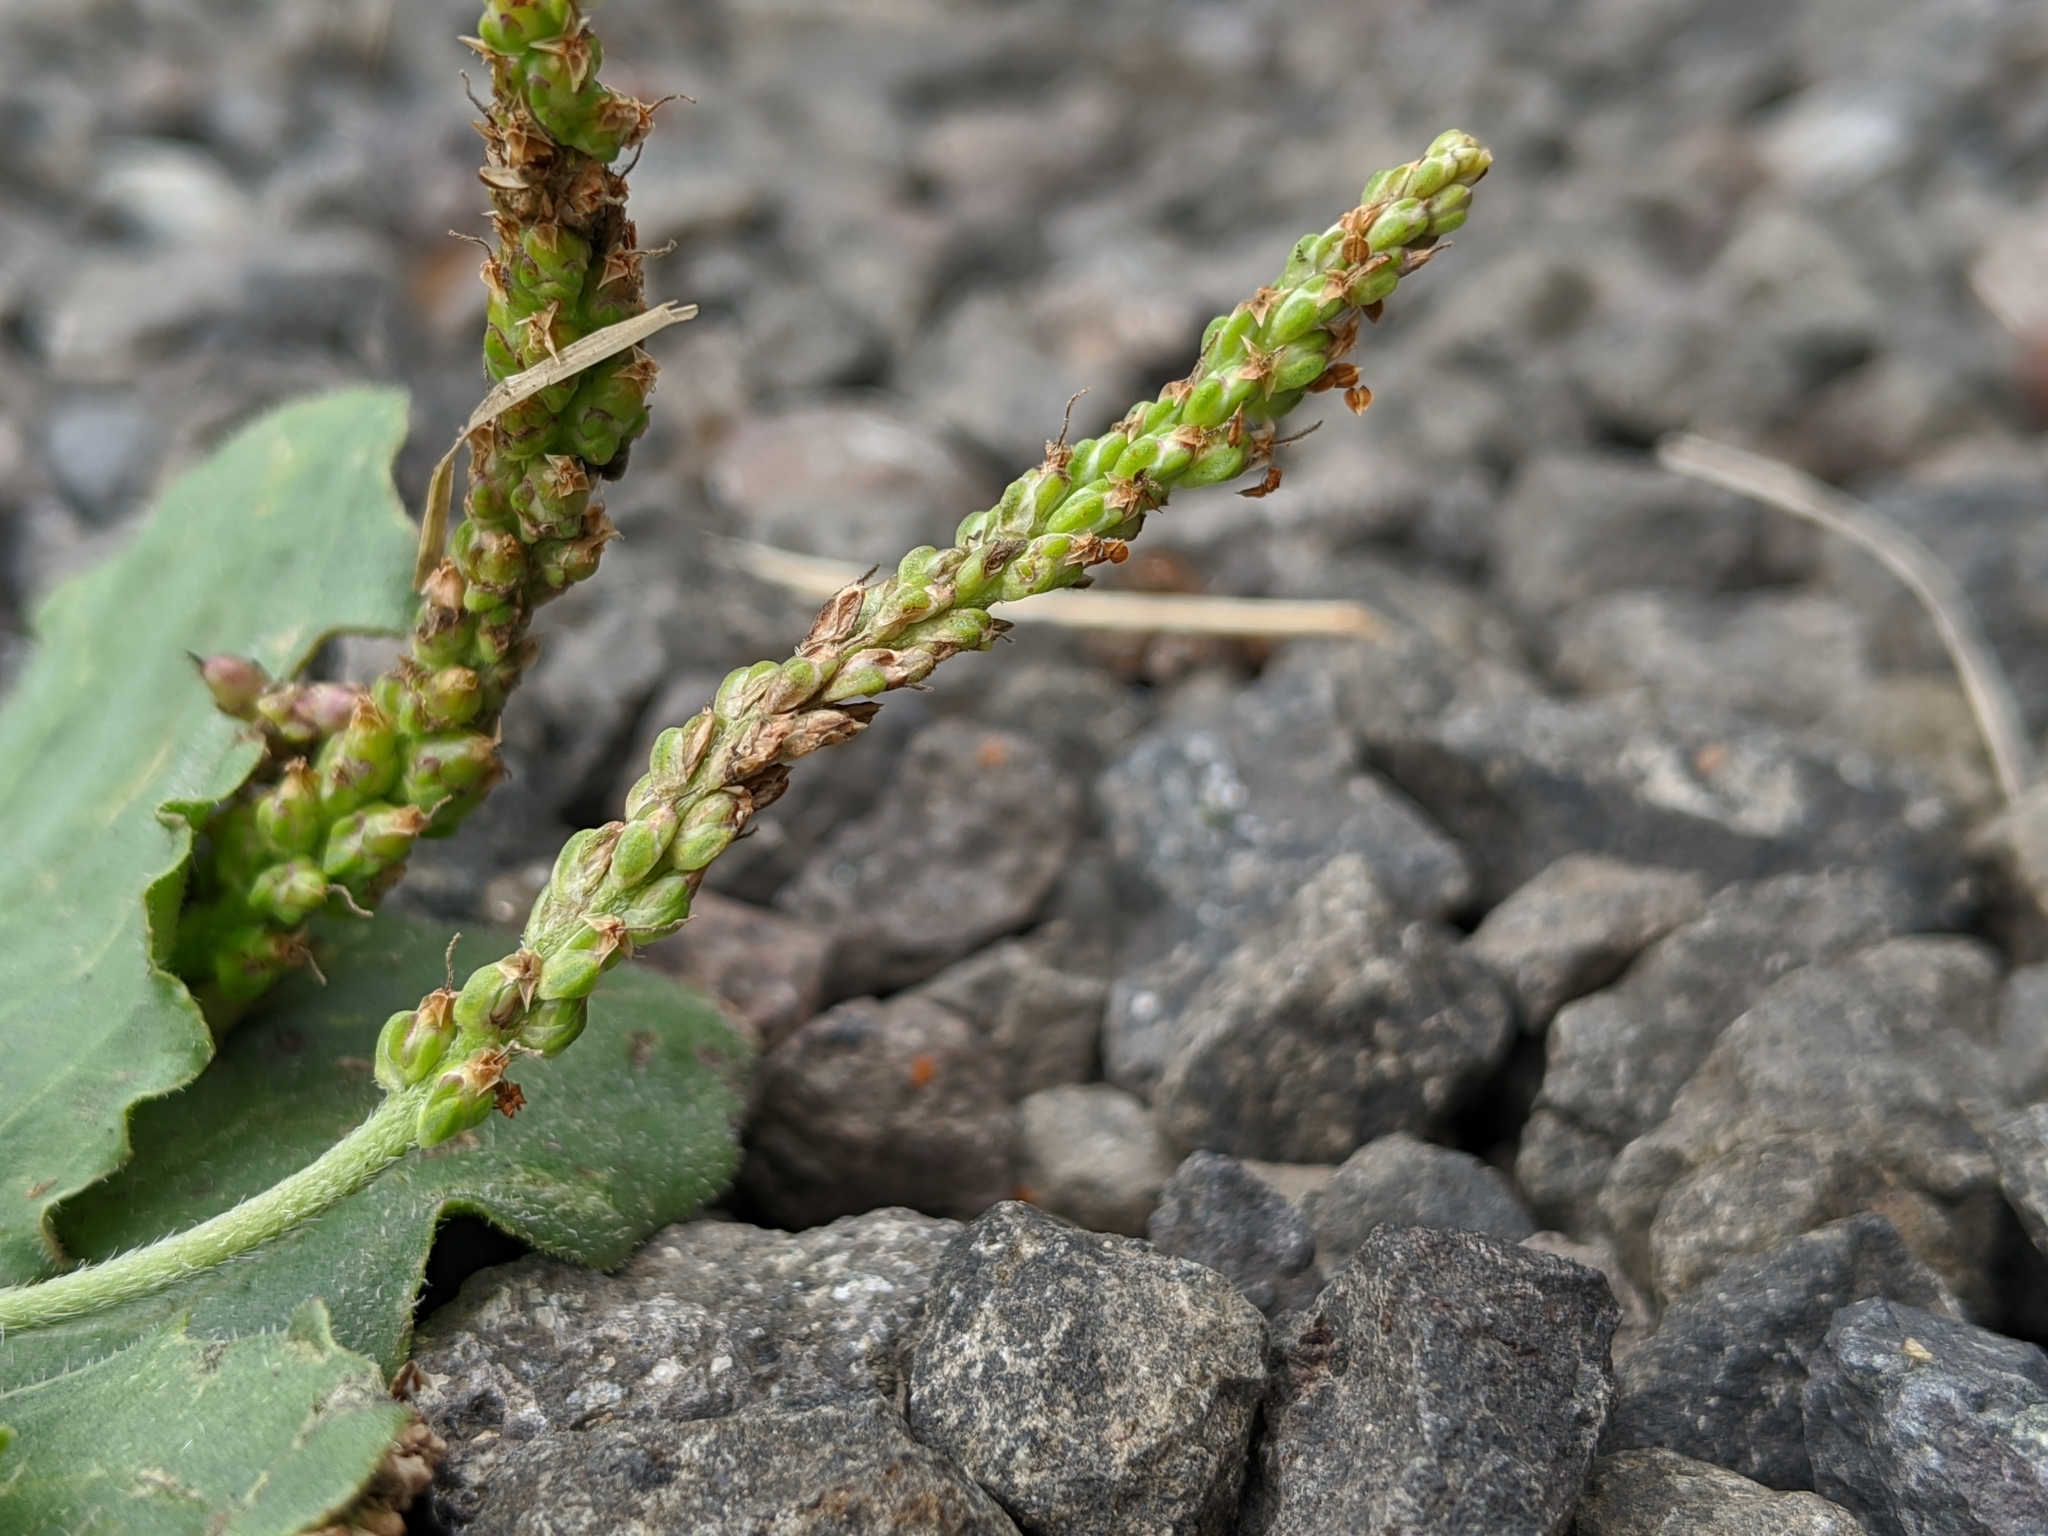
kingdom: Plantae
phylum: Tracheophyta
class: Magnoliopsida
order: Lamiales
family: Plantaginaceae
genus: Plantago
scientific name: Plantago major
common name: Common plantain
